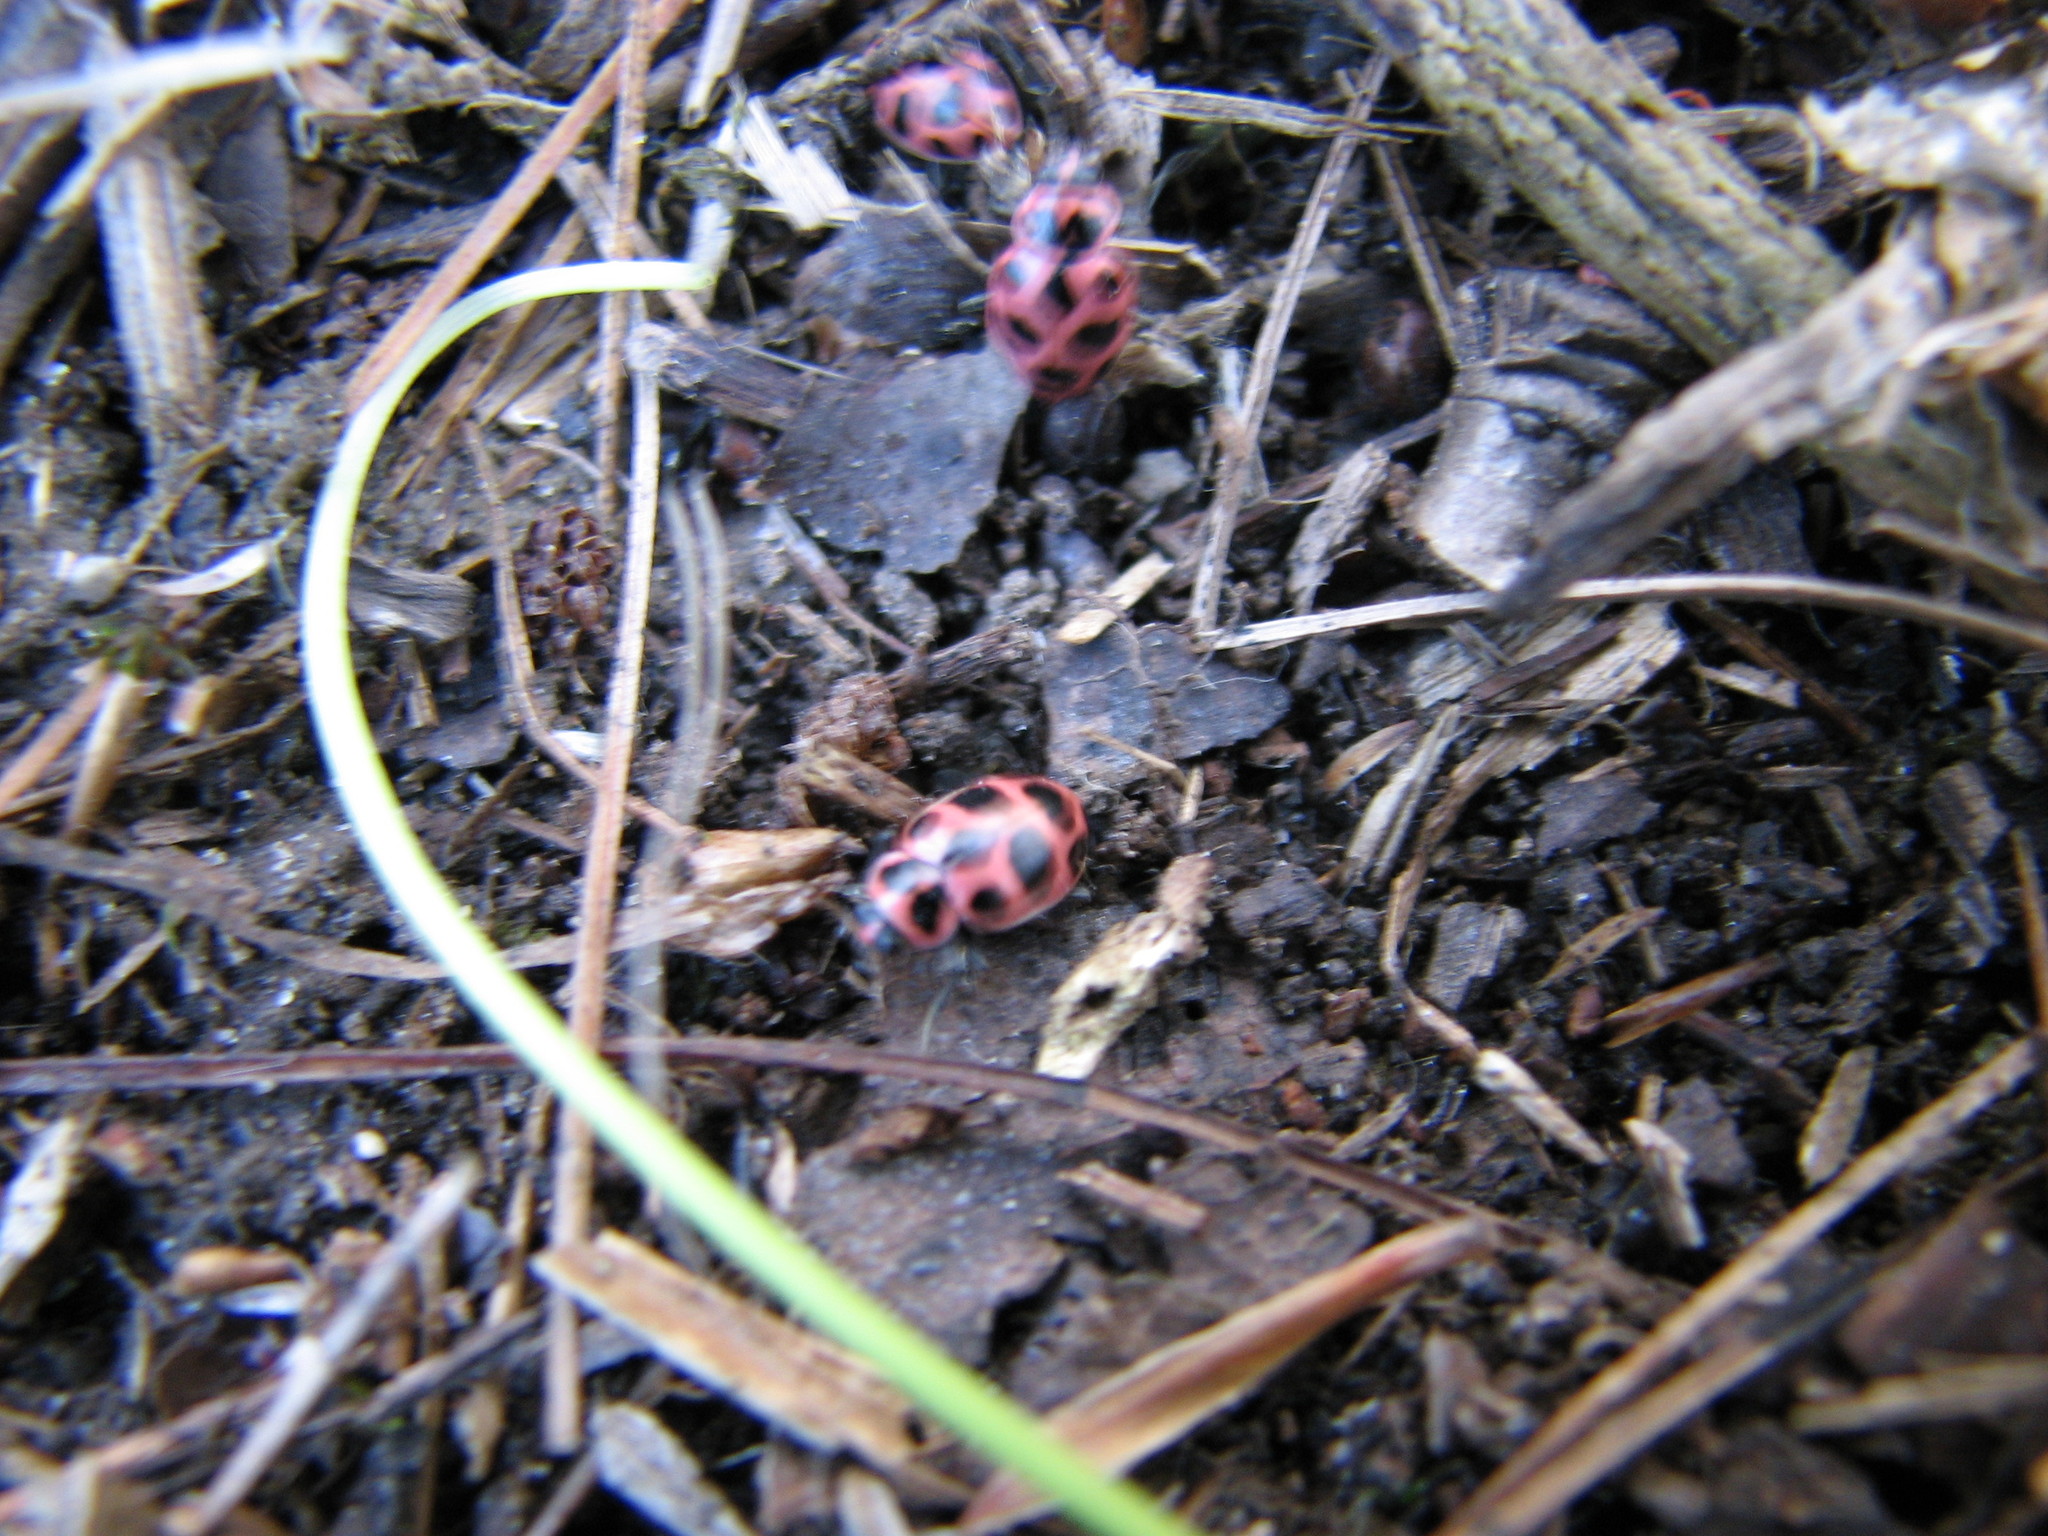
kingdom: Animalia
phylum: Arthropoda
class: Insecta
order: Coleoptera
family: Coccinellidae
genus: Coleomegilla
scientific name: Coleomegilla maculata
